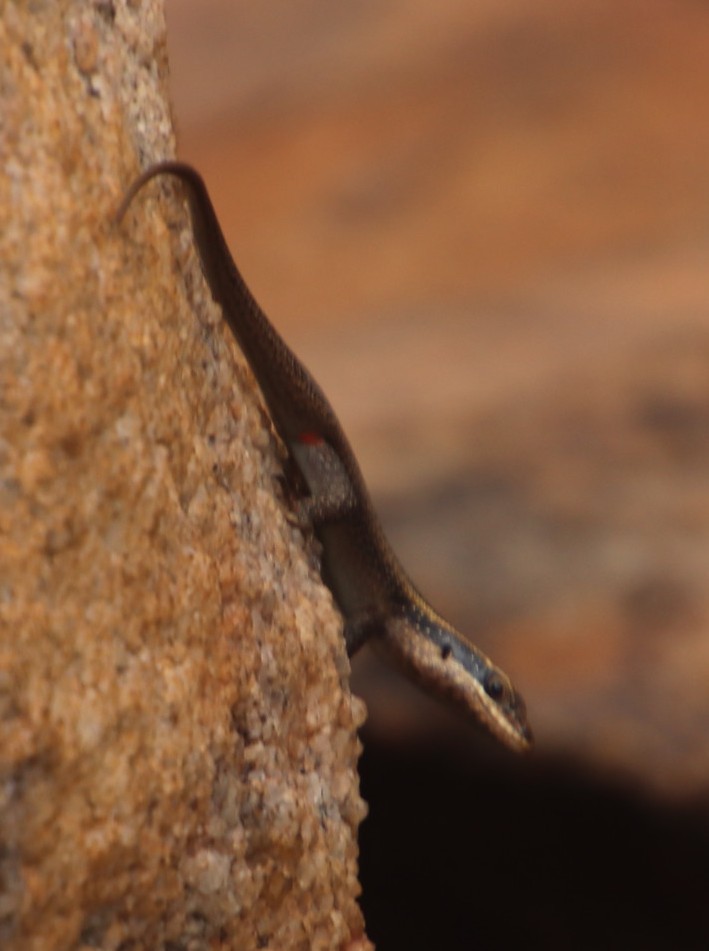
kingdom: Animalia
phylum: Chordata
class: Squamata
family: Scincidae
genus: Trachylepis
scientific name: Trachylepis punctatissima
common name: Montane speckled skink
